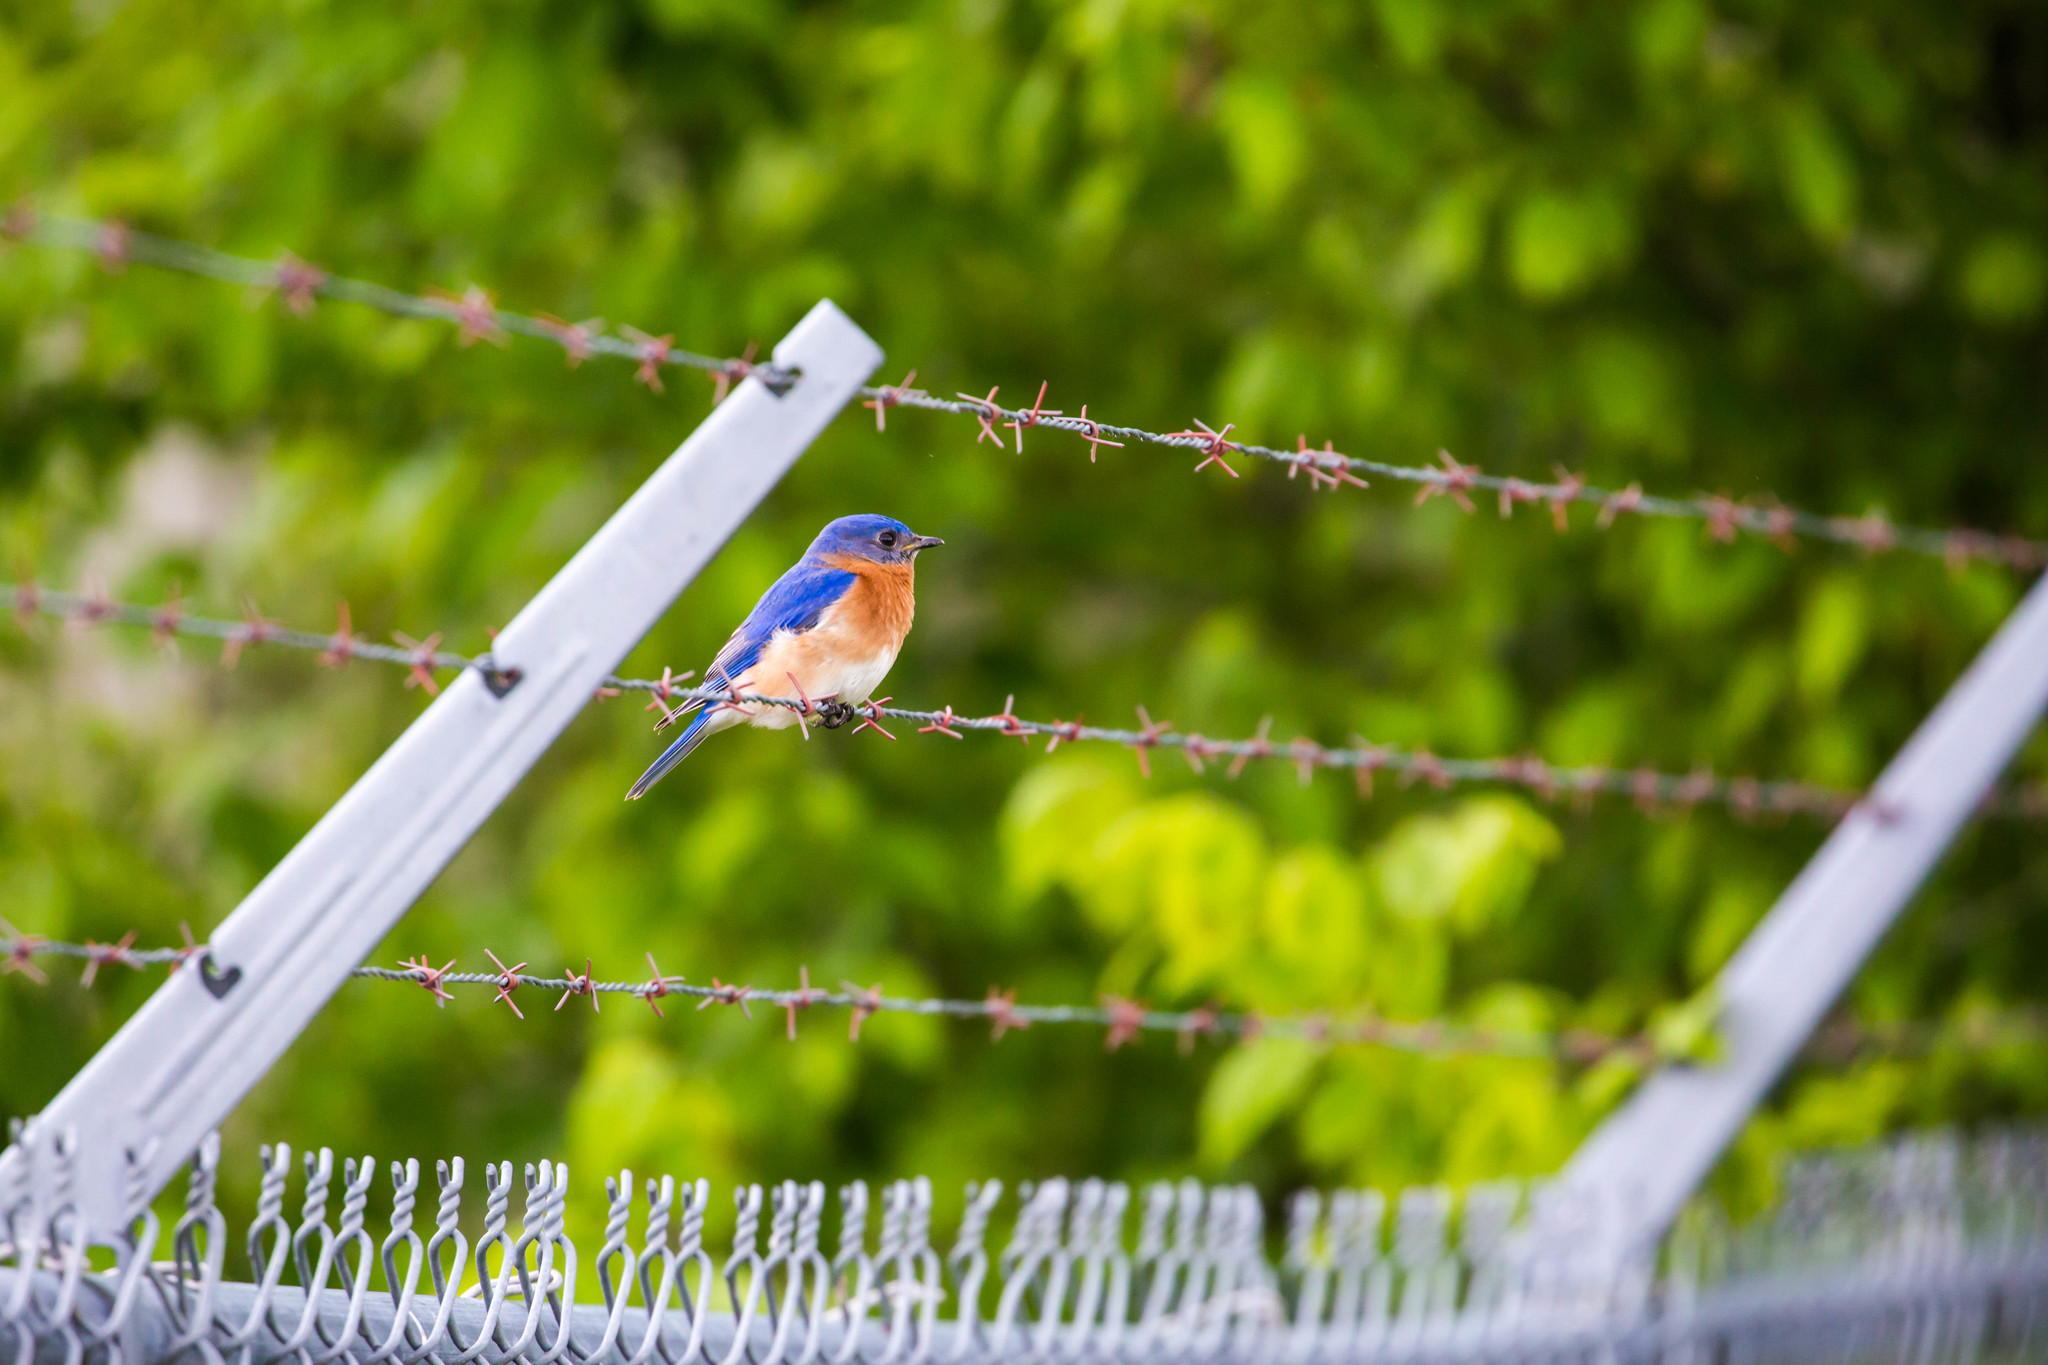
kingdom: Animalia
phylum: Chordata
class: Aves
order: Passeriformes
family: Turdidae
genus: Sialia
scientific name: Sialia sialis
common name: Eastern bluebird
